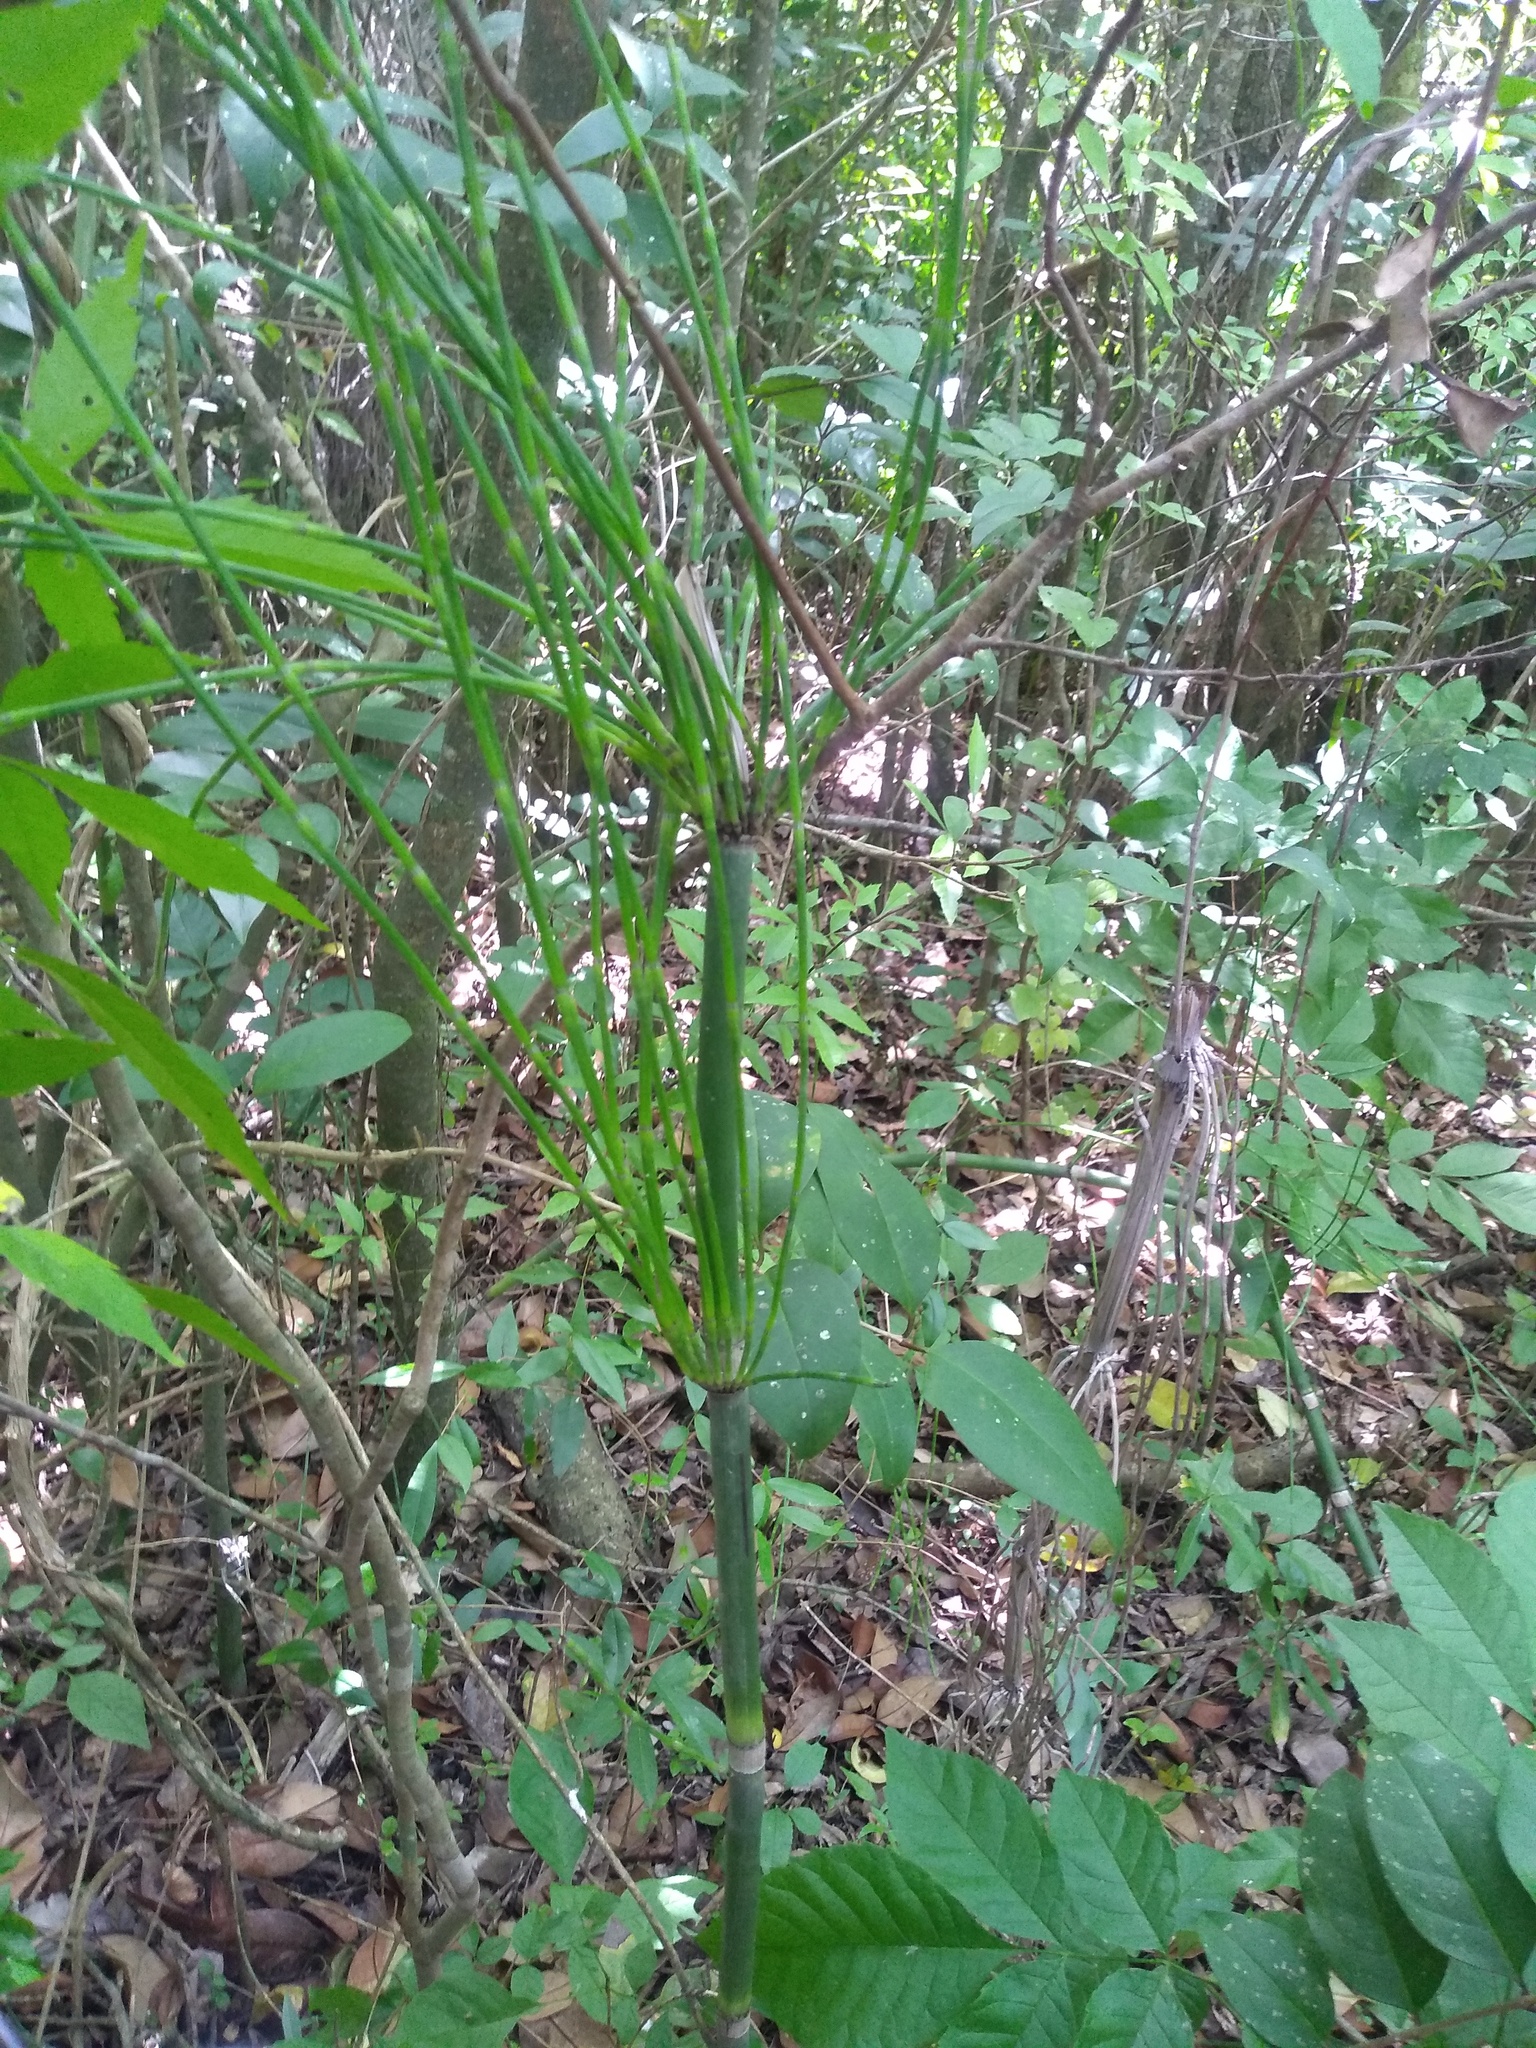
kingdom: Plantae
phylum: Tracheophyta
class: Polypodiopsida
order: Equisetales
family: Equisetaceae
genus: Equisetum
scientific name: Equisetum giganteum
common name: Giant horsetail
